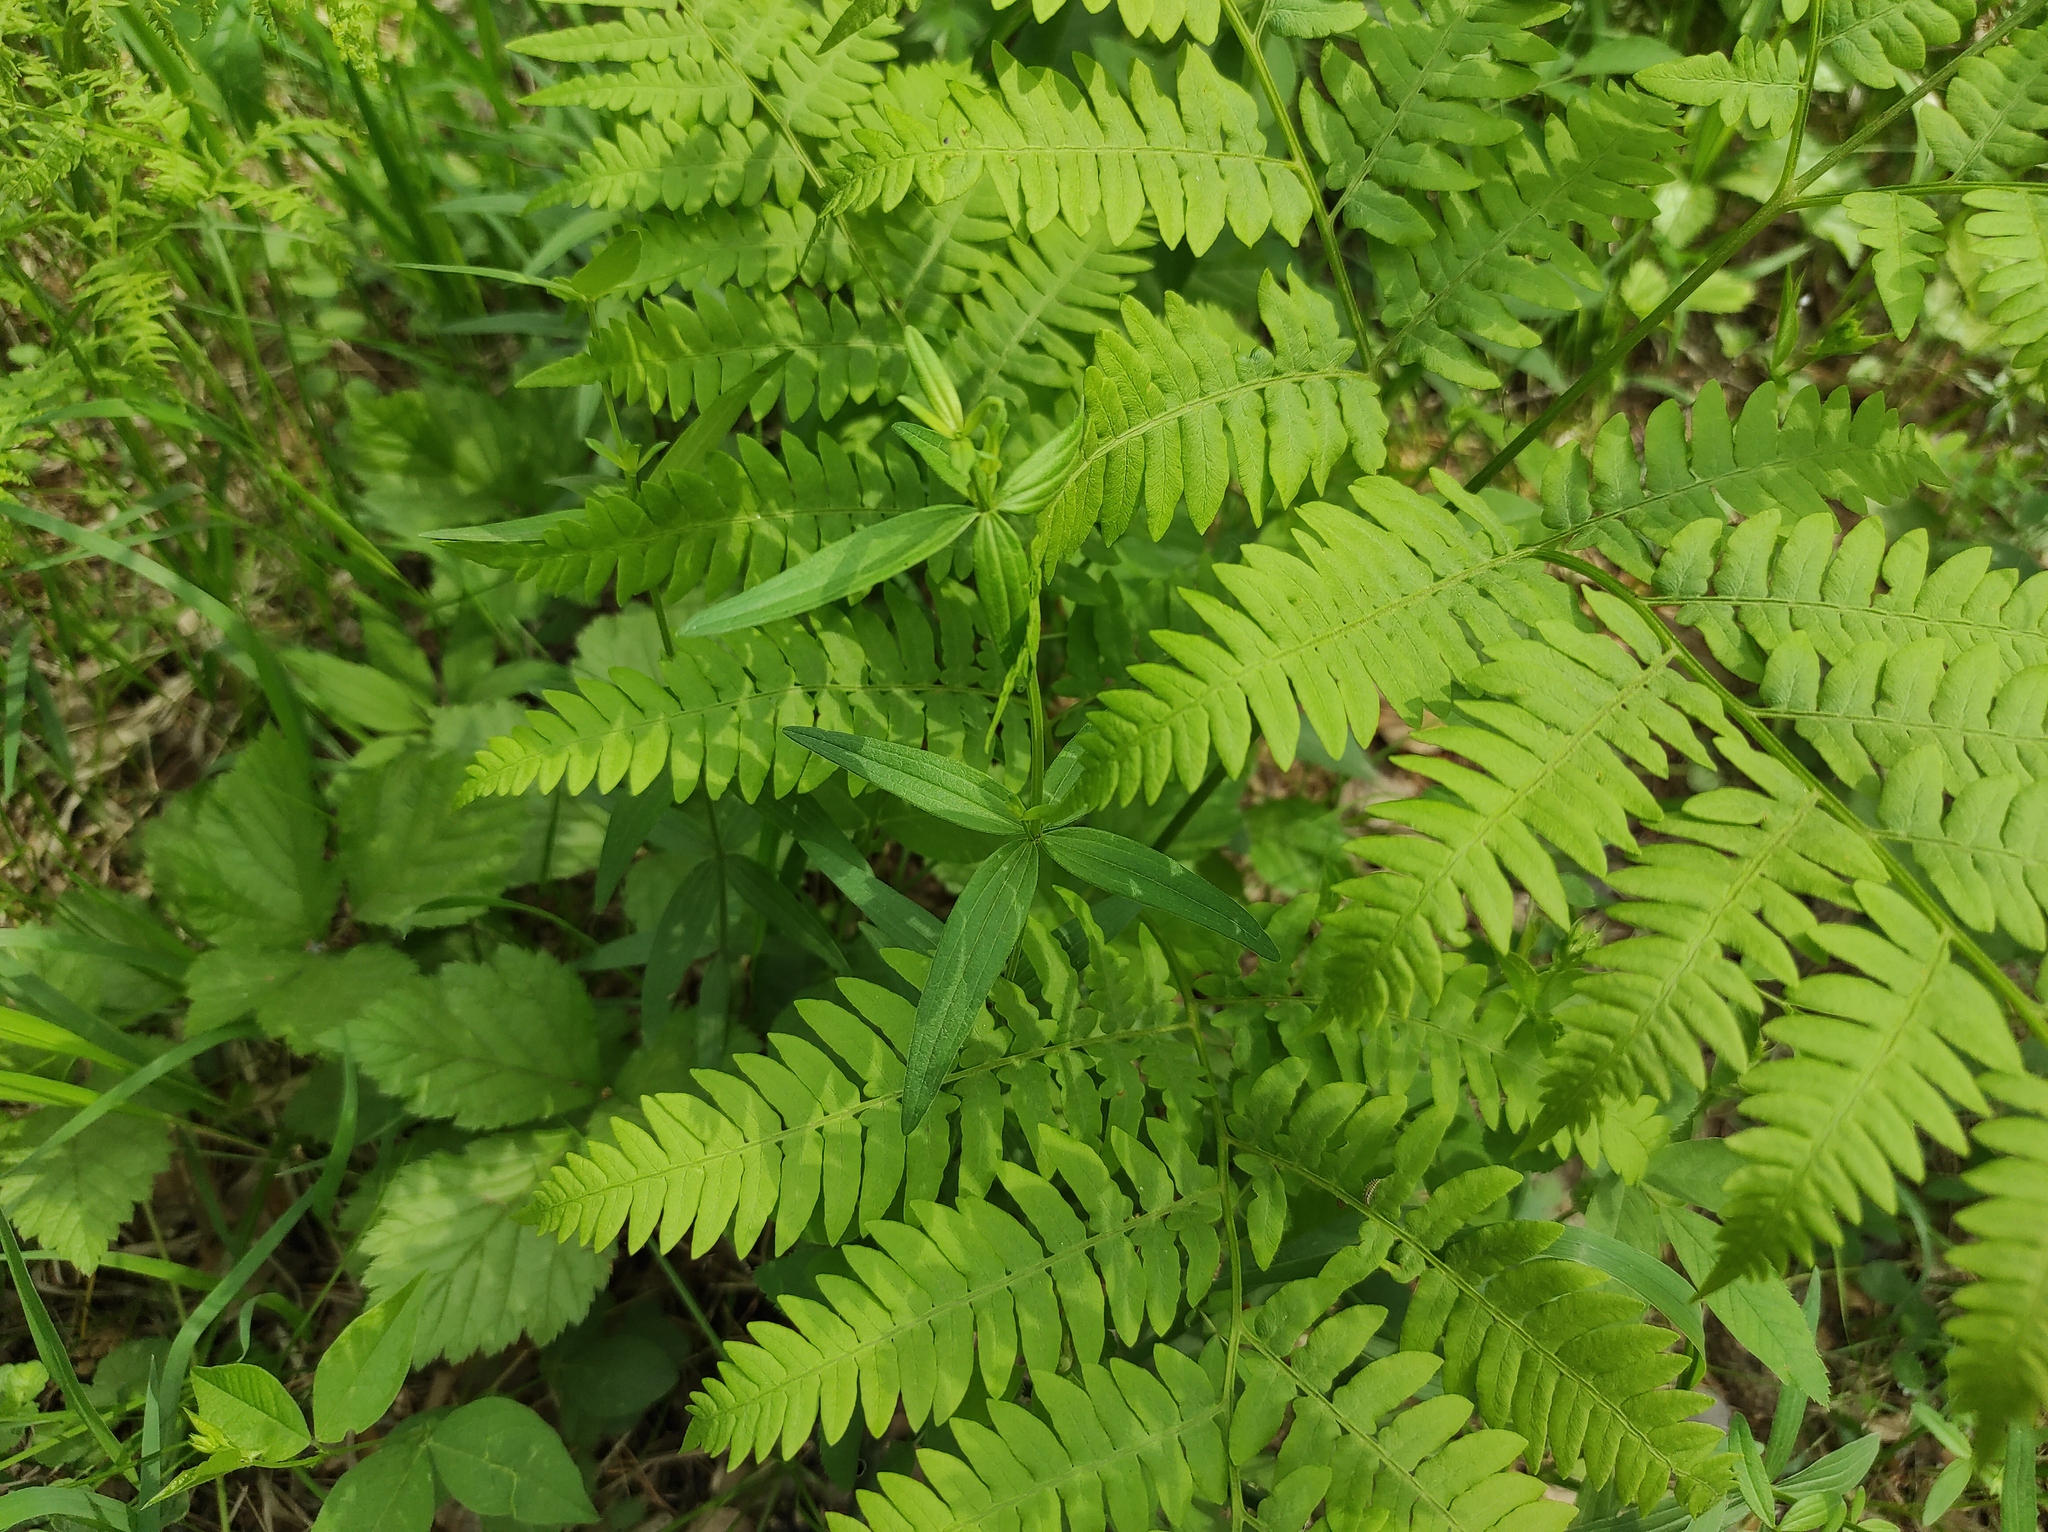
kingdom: Plantae
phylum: Tracheophyta
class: Polypodiopsida
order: Polypodiales
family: Dennstaedtiaceae
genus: Pteridium
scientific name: Pteridium aquilinum
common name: Bracken
